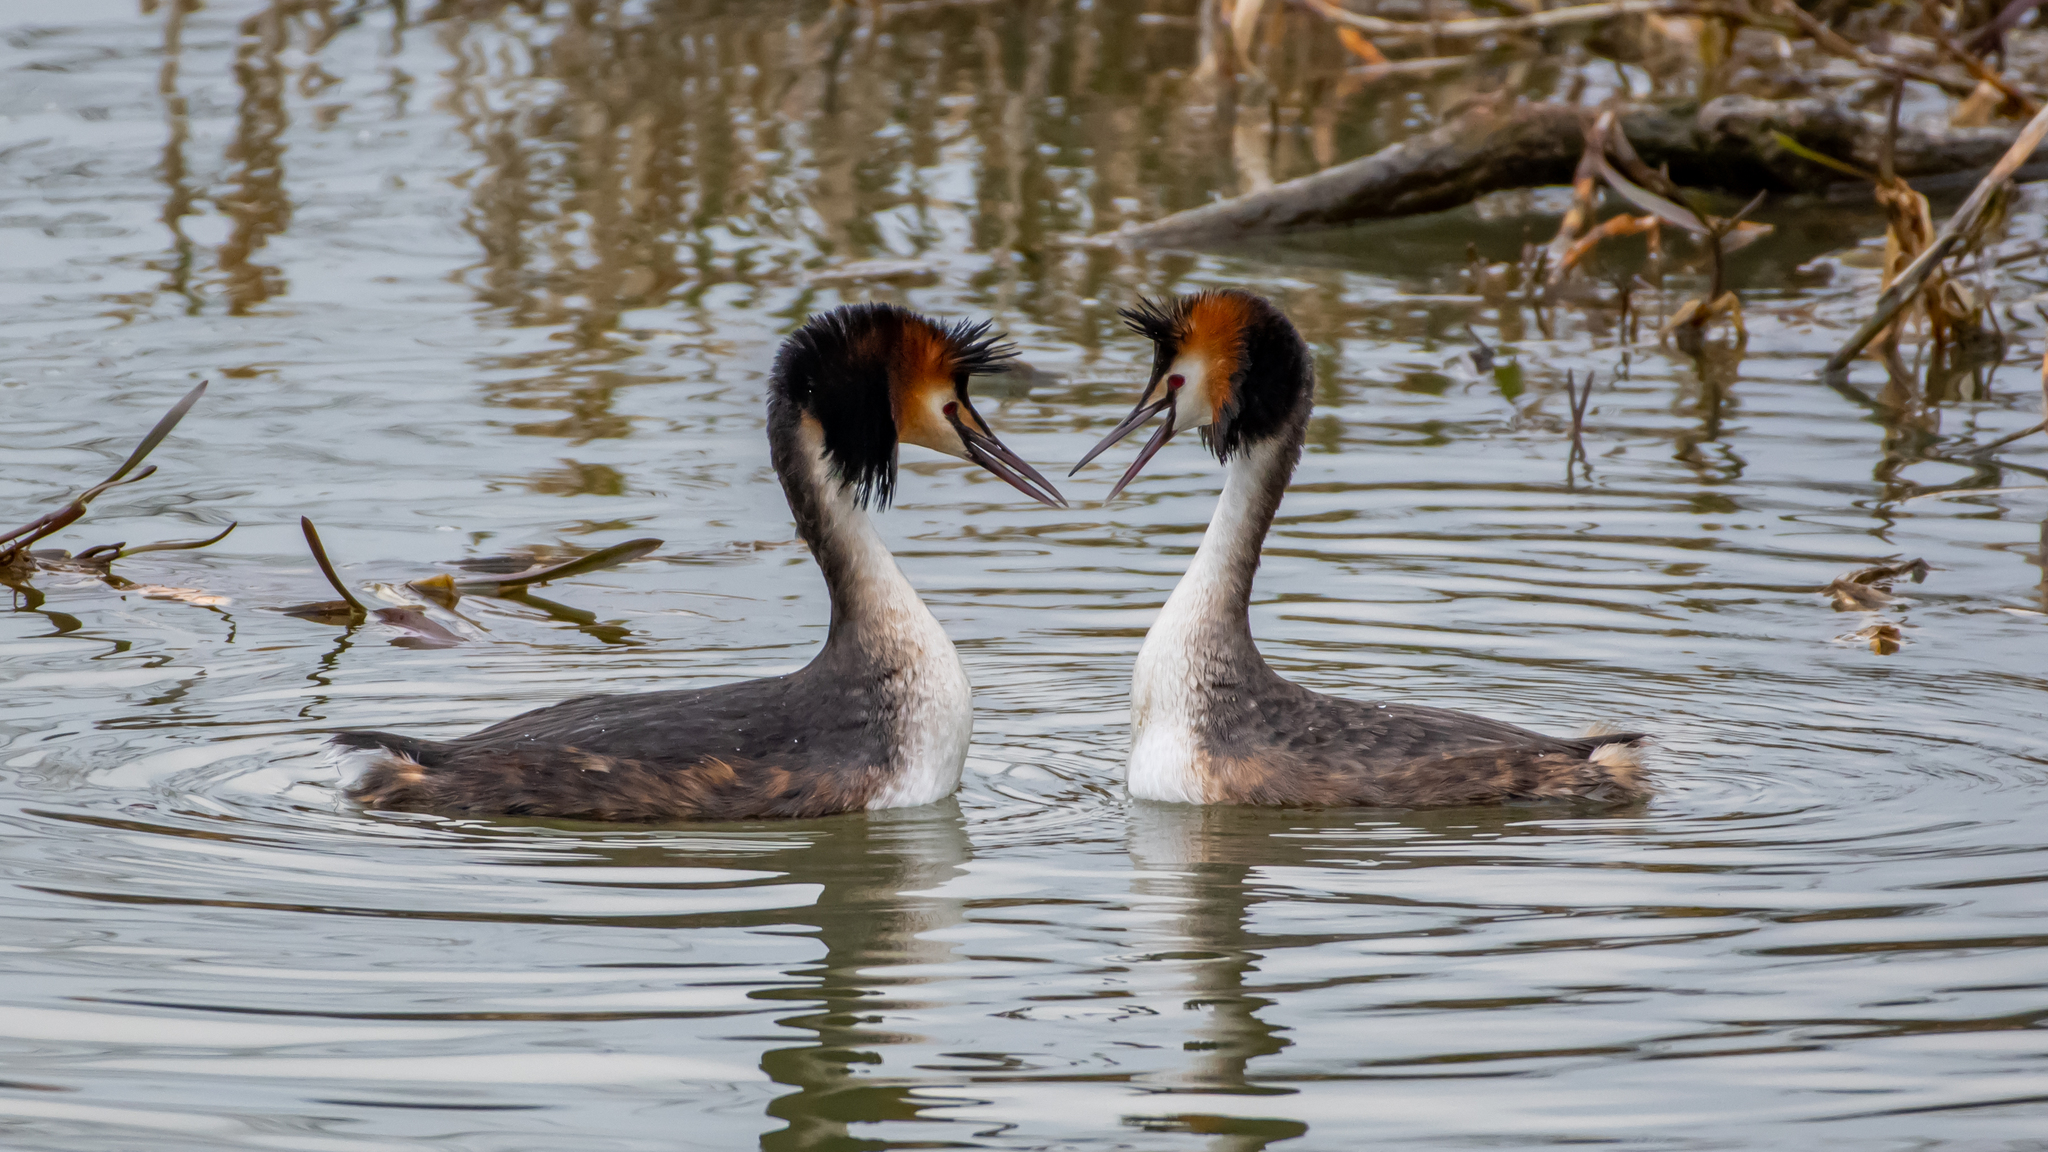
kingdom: Animalia
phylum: Chordata
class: Aves
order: Podicipediformes
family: Podicipedidae
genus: Podiceps
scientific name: Podiceps cristatus
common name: Great crested grebe
